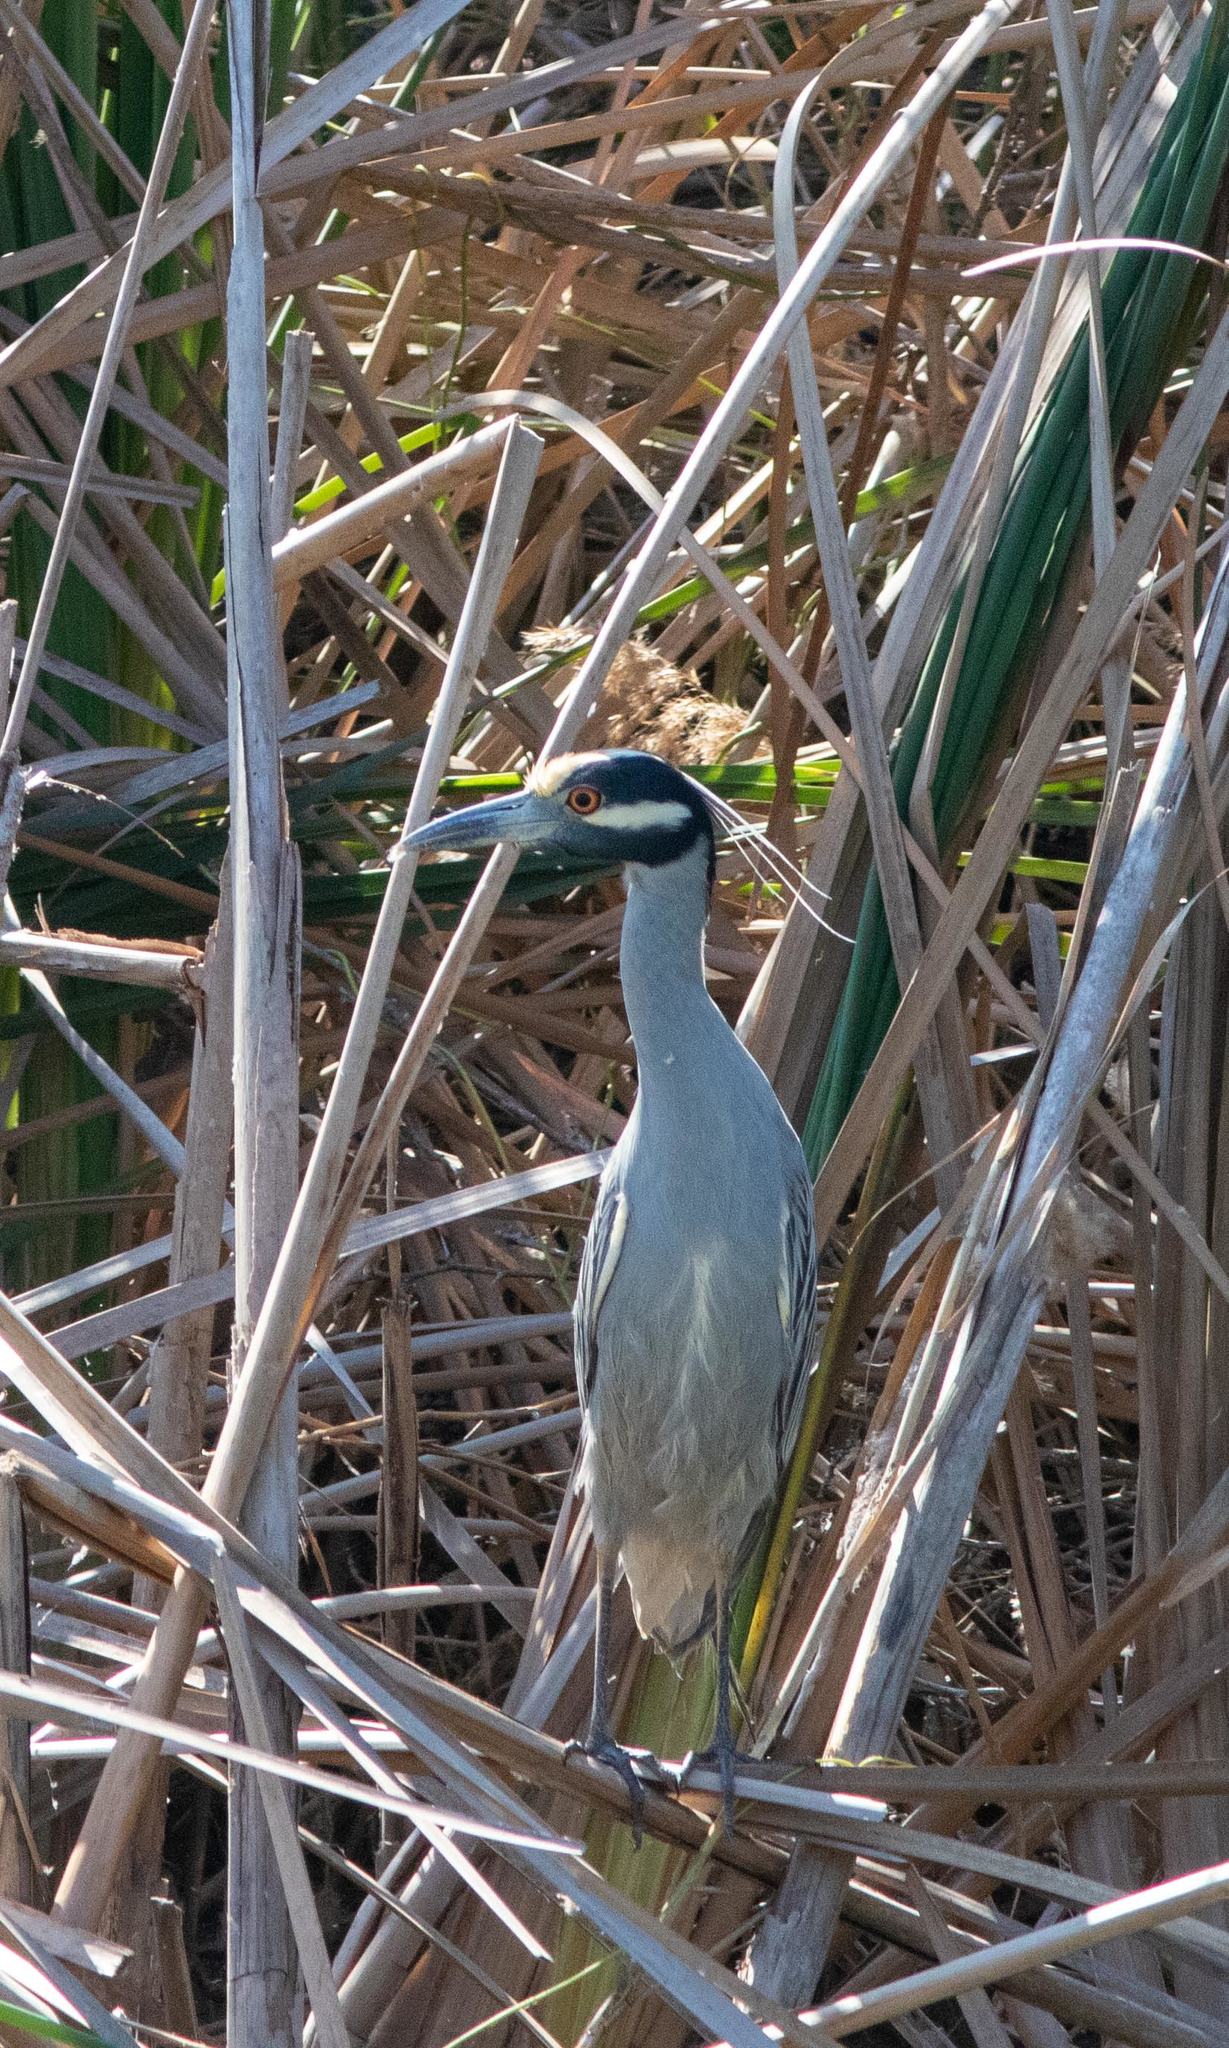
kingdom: Animalia
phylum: Chordata
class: Aves
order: Pelecaniformes
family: Ardeidae
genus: Nyctanassa
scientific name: Nyctanassa violacea
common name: Yellow-crowned night heron
